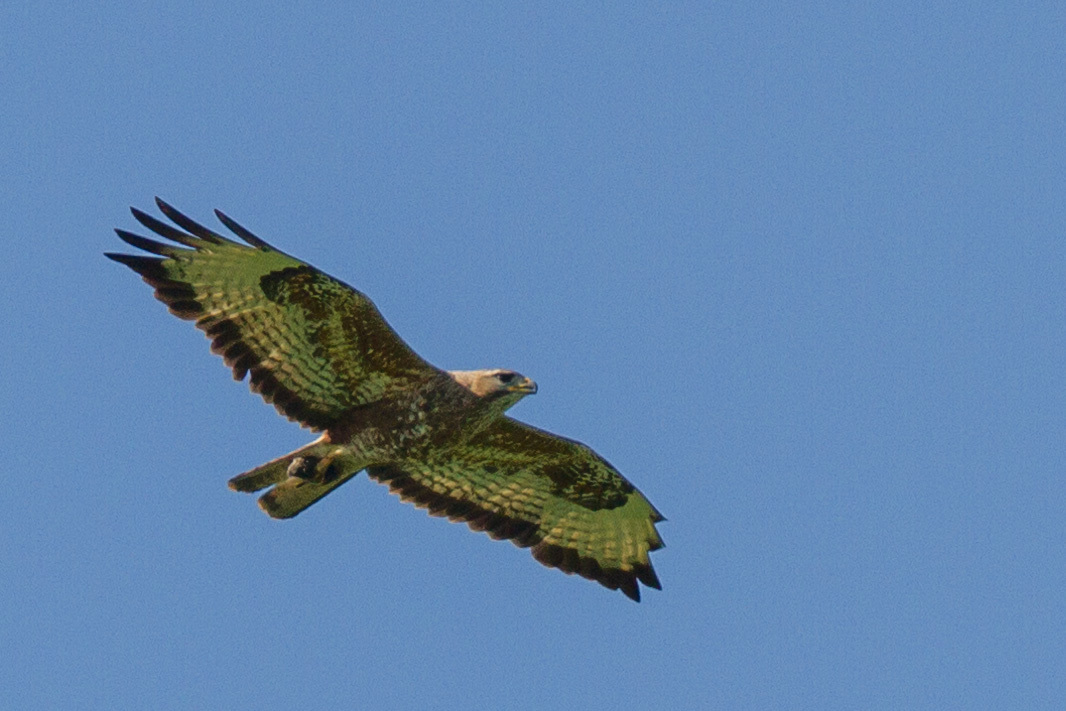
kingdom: Animalia
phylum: Chordata
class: Aves
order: Accipitriformes
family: Accipitridae
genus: Buteo
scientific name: Buteo buteo
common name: Common buzzard
